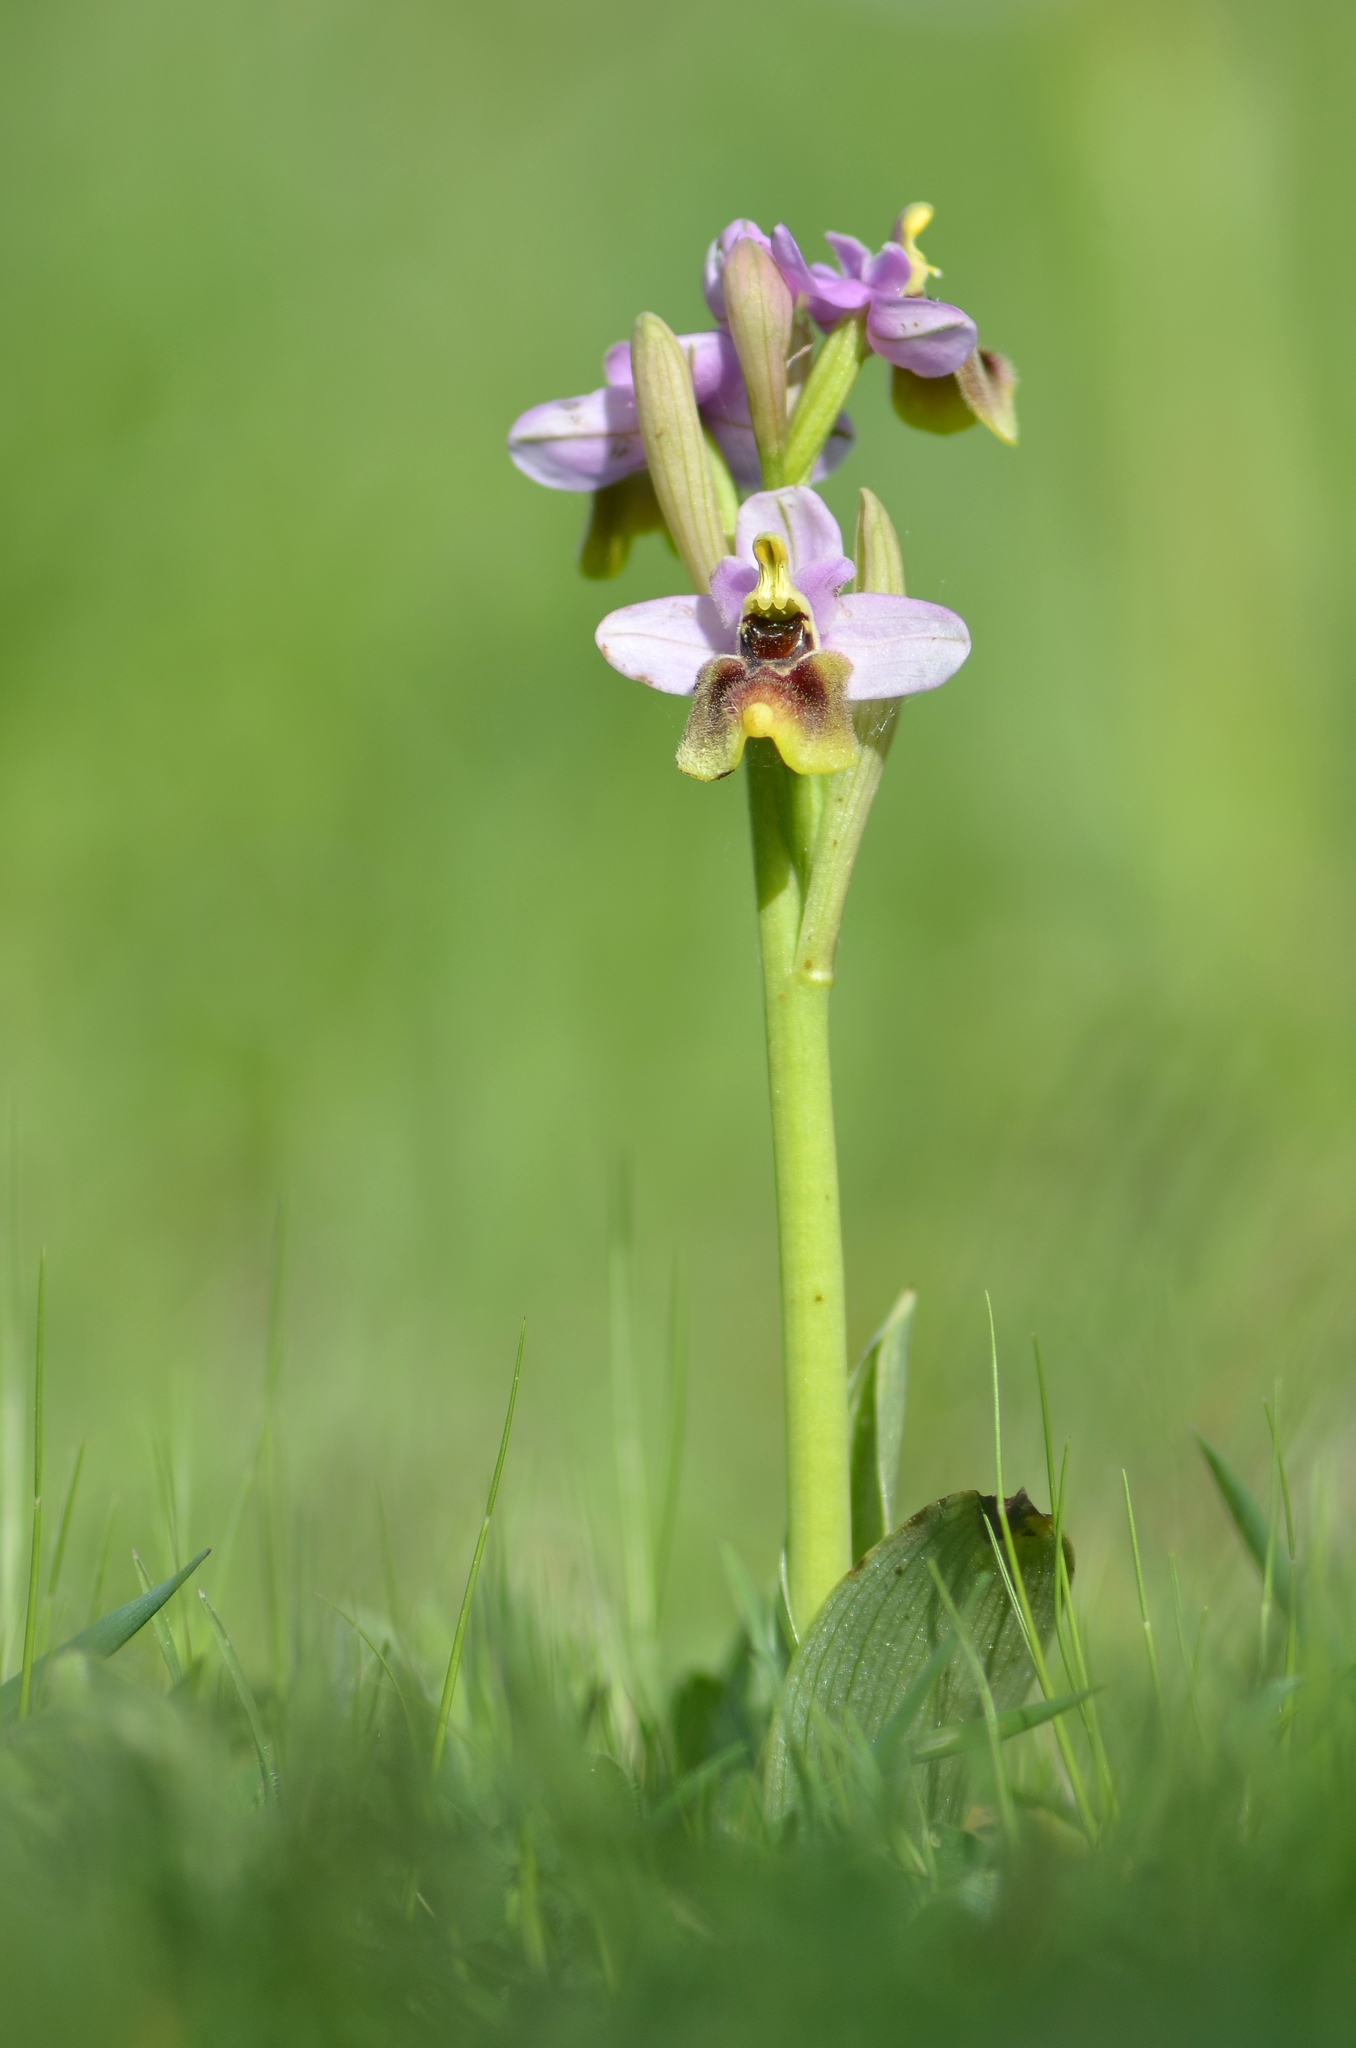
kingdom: Plantae
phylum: Tracheophyta
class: Liliopsida
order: Asparagales
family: Orchidaceae
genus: Ophrys
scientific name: Ophrys tenthredinifera
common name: Sawfly orchid
